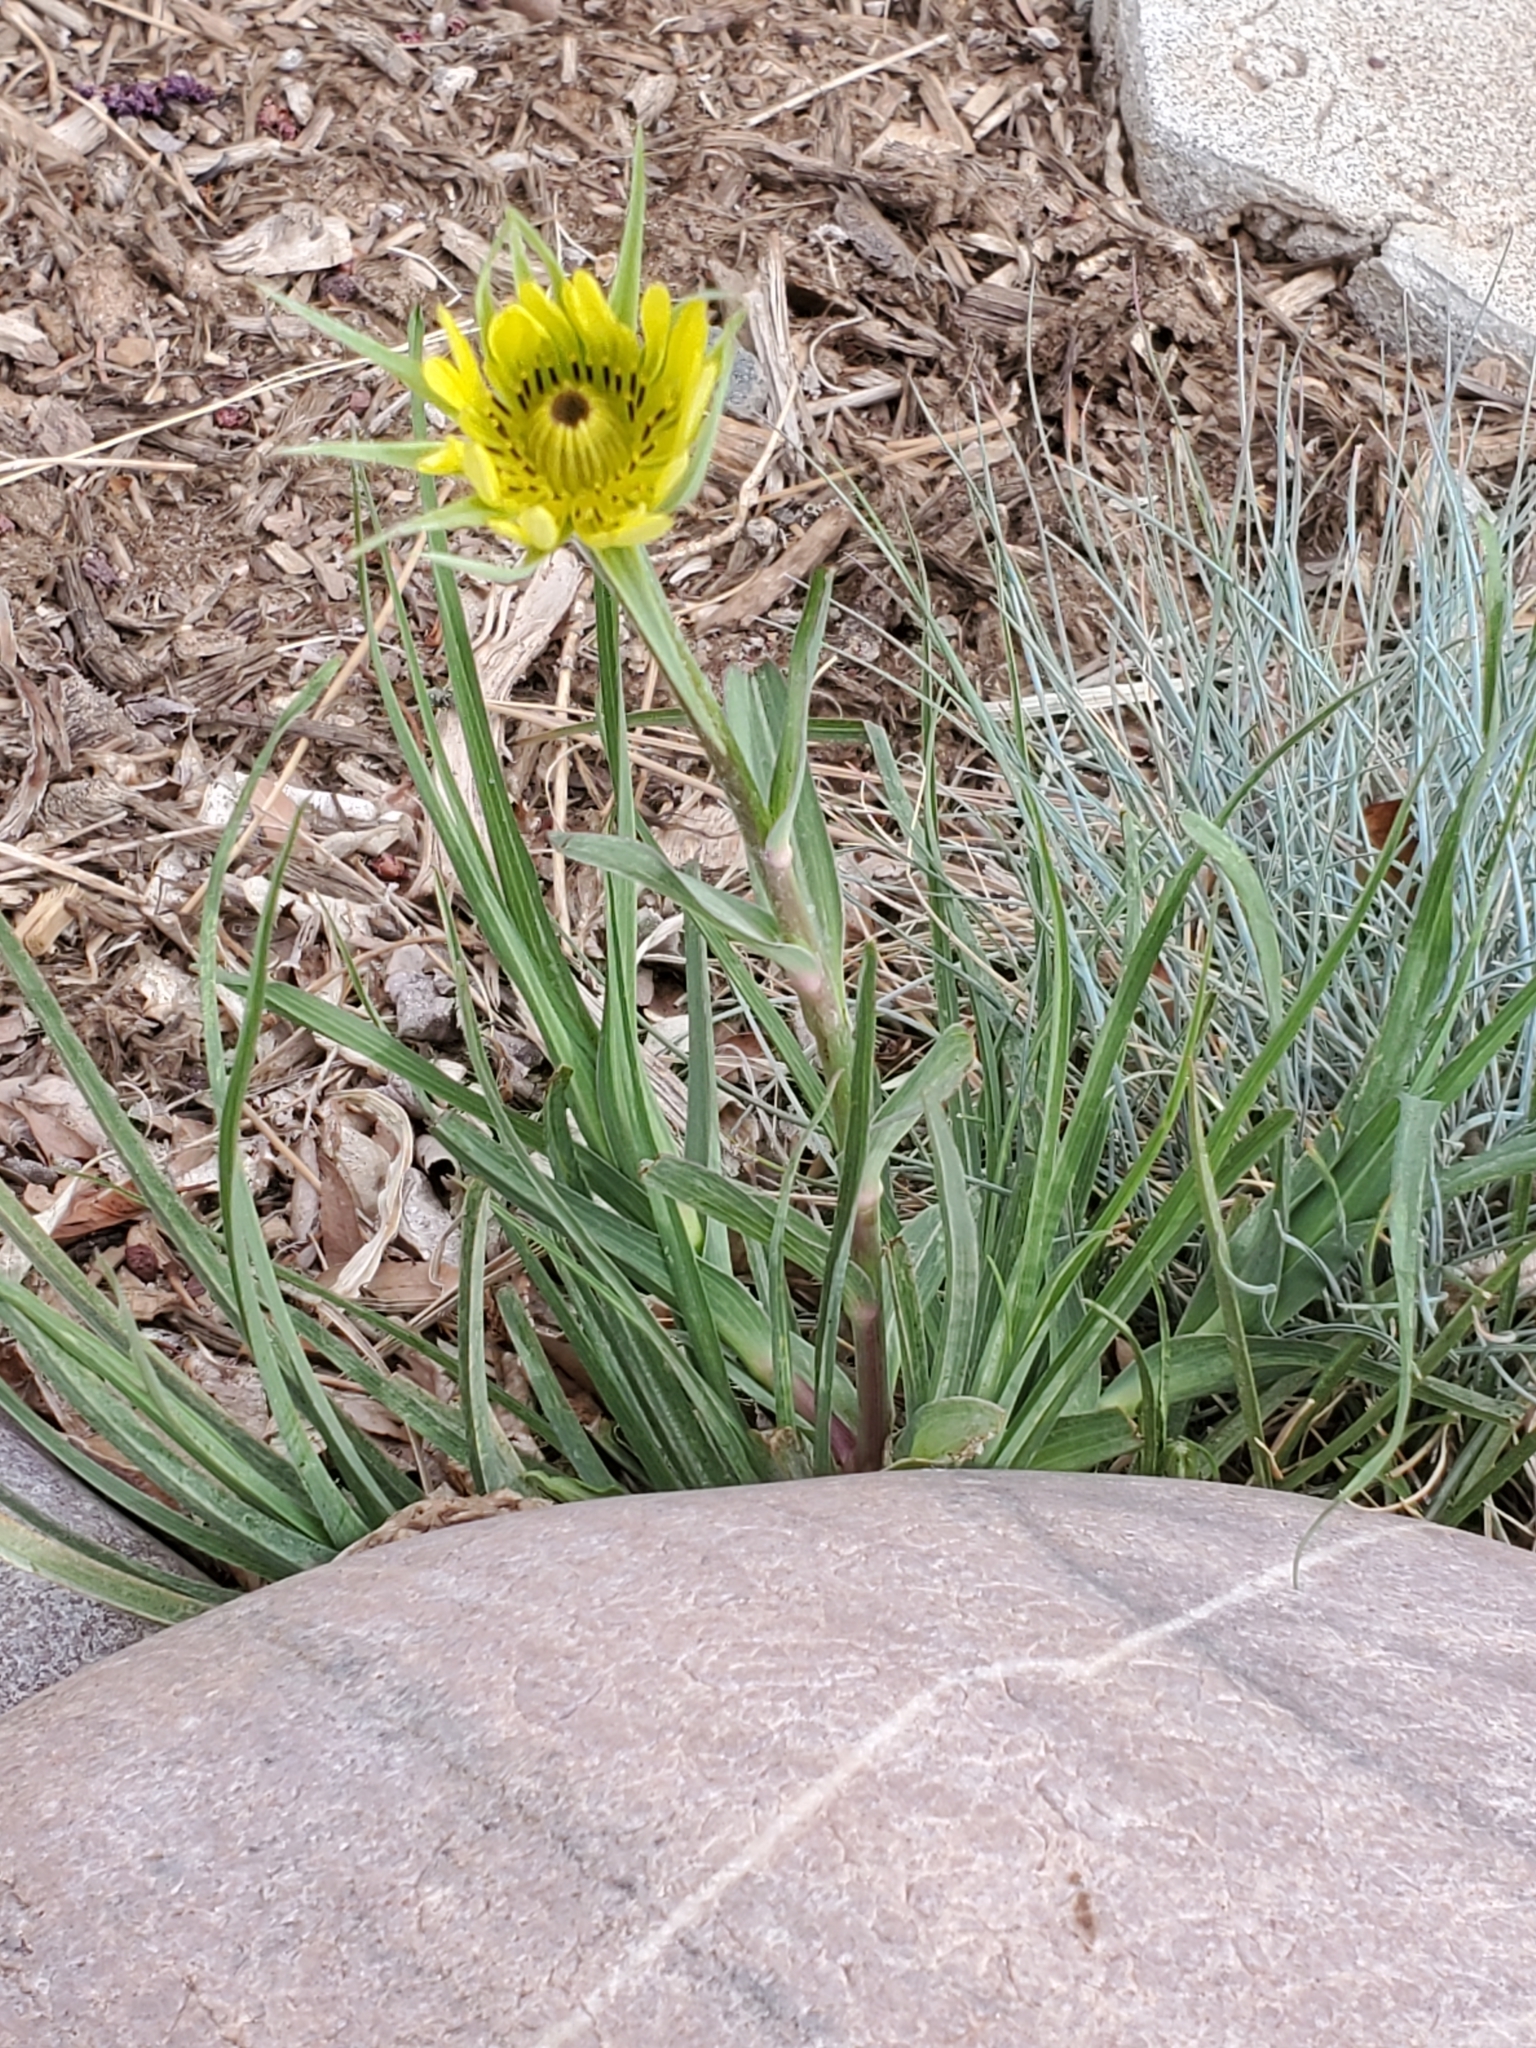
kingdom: Plantae
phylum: Tracheophyta
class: Magnoliopsida
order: Asterales
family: Asteraceae
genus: Tragopogon
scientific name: Tragopogon dubius
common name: Yellow salsify
